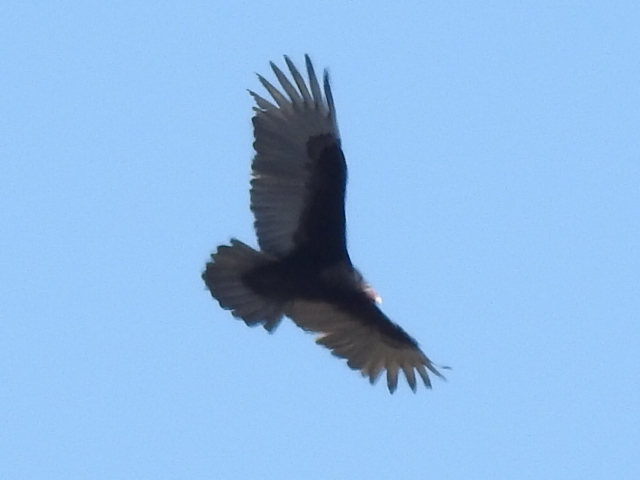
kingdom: Animalia
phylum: Chordata
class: Aves
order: Accipitriformes
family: Cathartidae
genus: Cathartes
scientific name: Cathartes aura
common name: Turkey vulture
